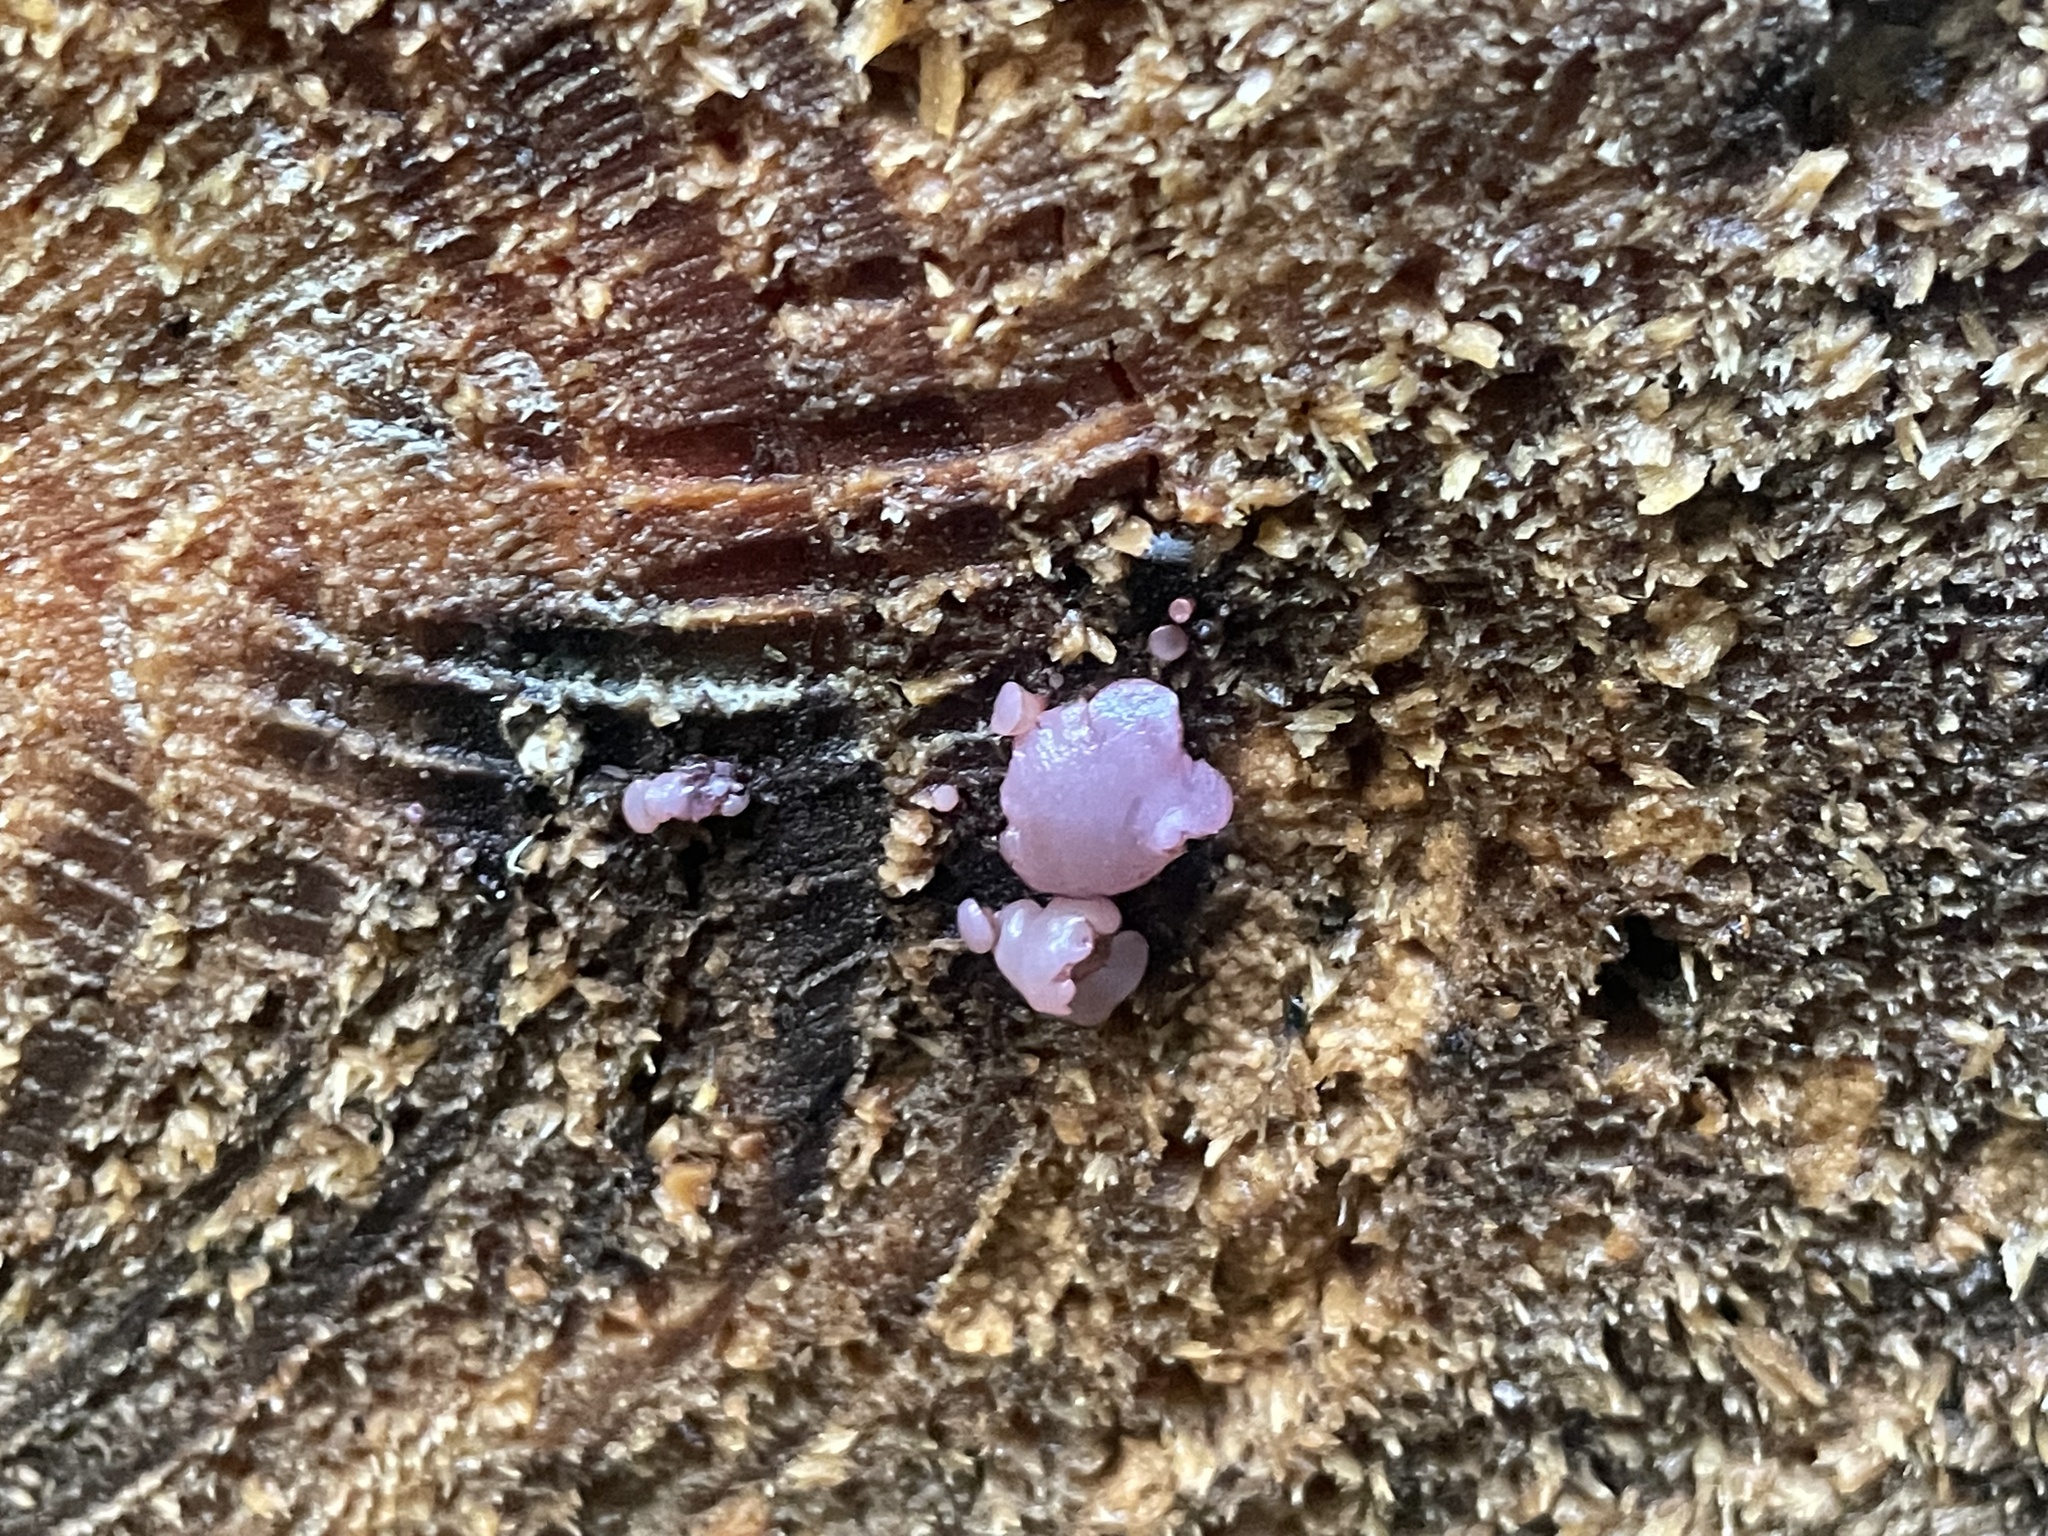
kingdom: Fungi
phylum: Ascomycota
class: Leotiomycetes
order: Helotiales
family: Gelatinodiscaceae
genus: Ascocoryne
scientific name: Ascocoryne sarcoides
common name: Purple jellydisc
